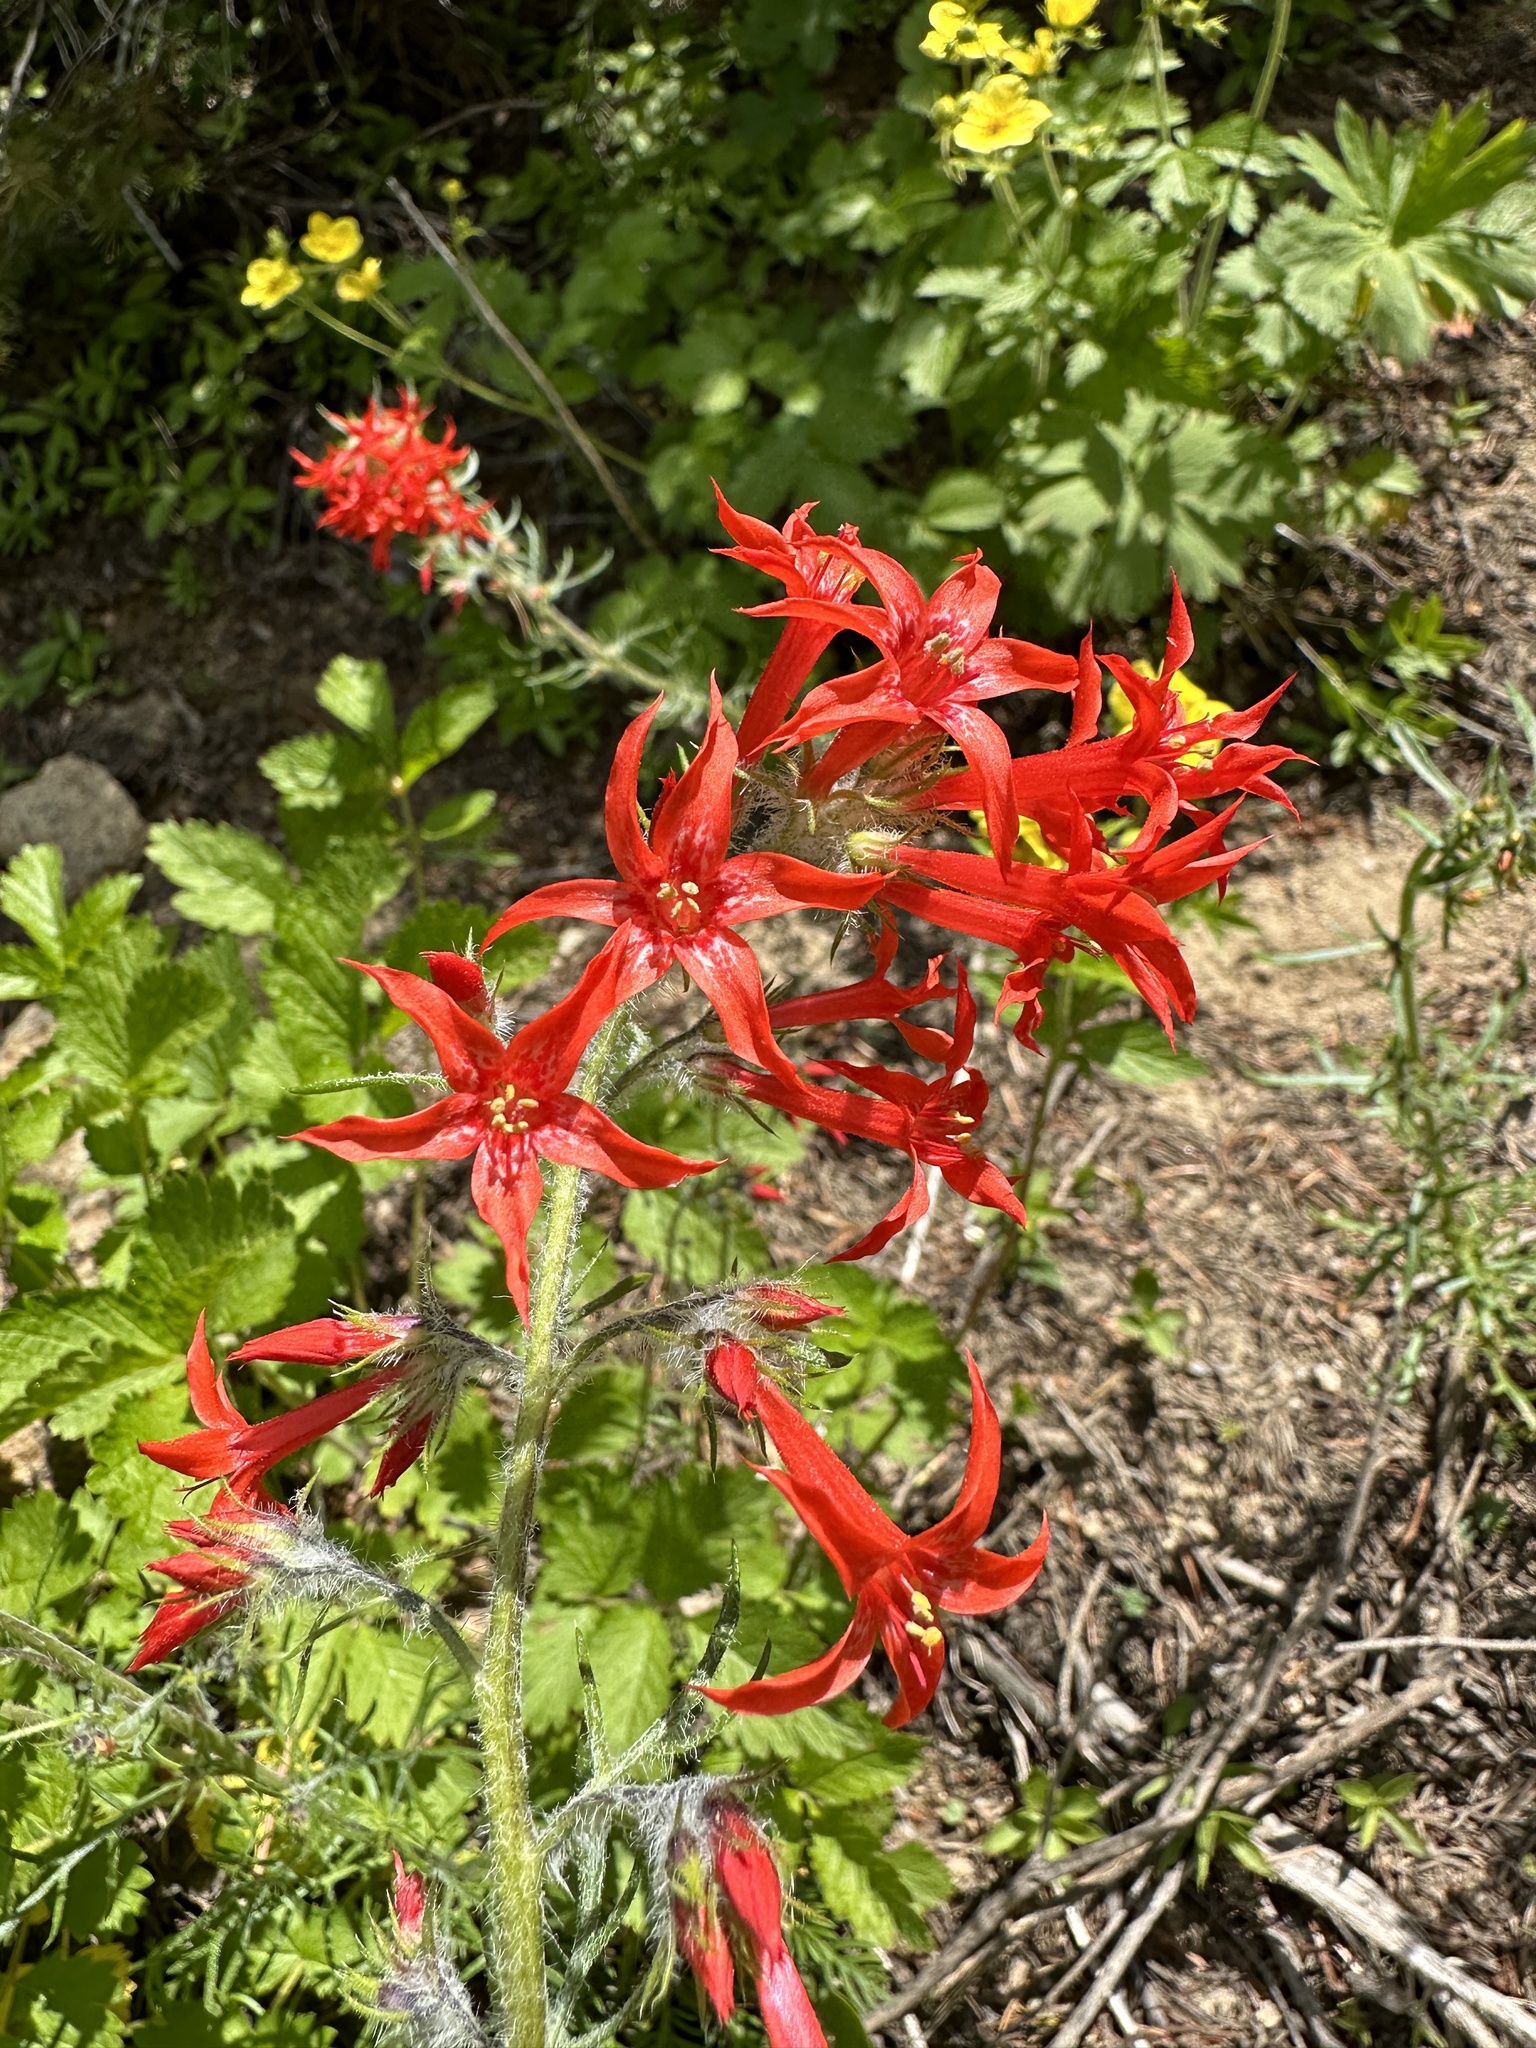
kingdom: Plantae
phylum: Tracheophyta
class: Magnoliopsida
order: Ericales
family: Polemoniaceae
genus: Ipomopsis
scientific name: Ipomopsis aggregata
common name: Scarlet gilia
